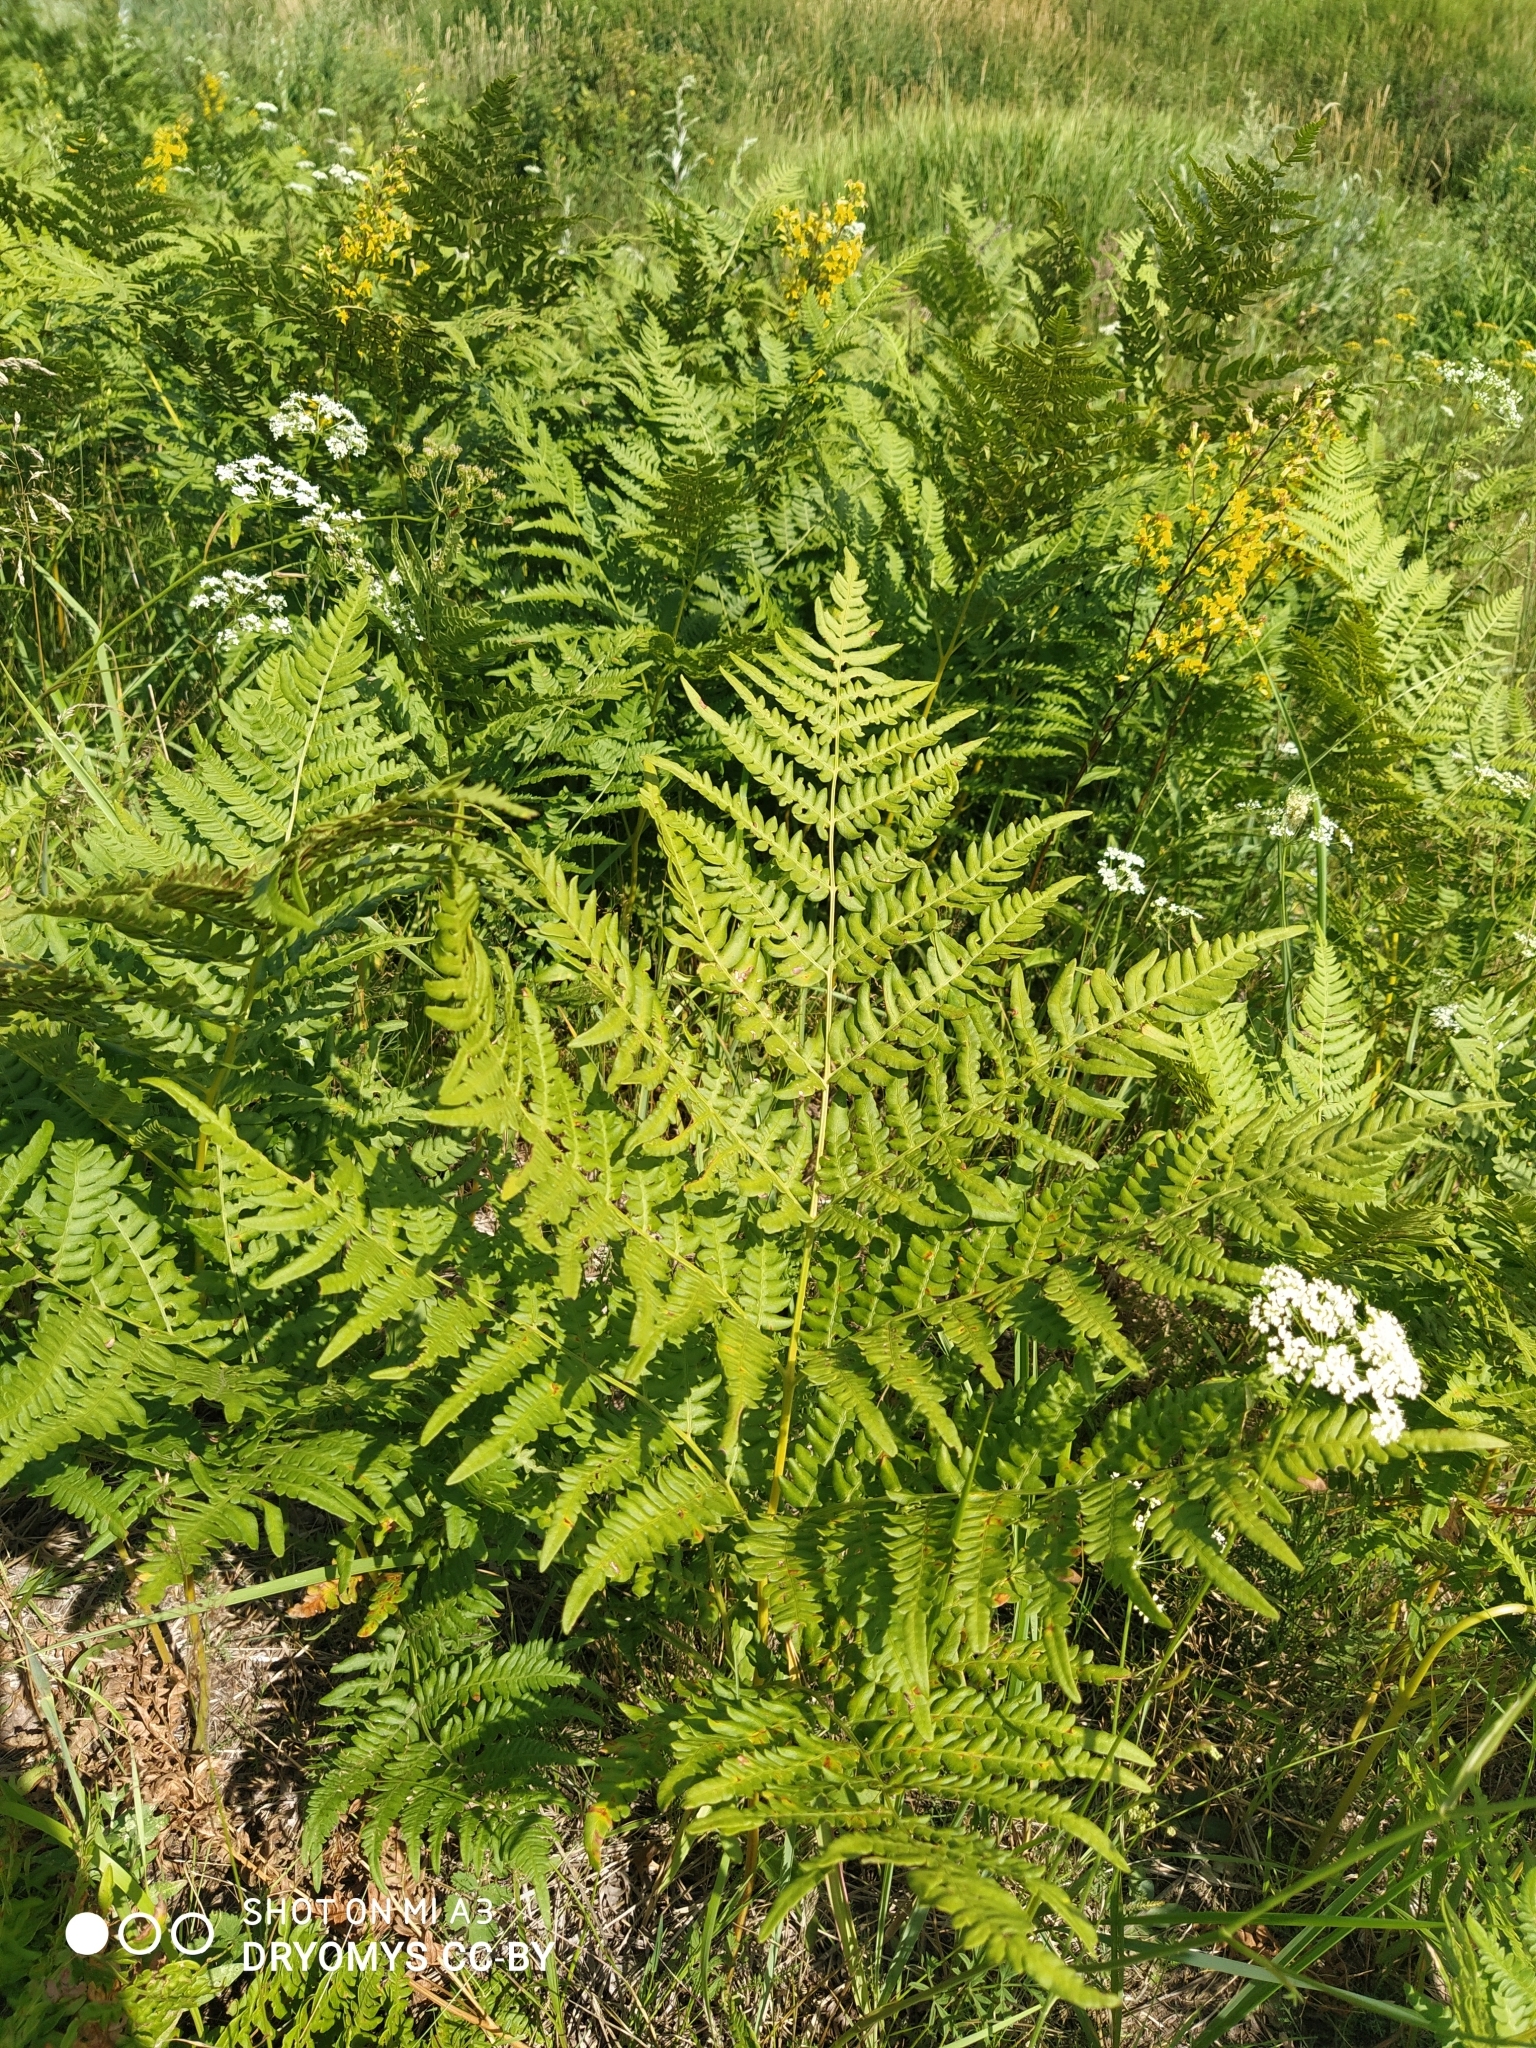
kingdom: Plantae
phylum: Tracheophyta
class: Polypodiopsida
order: Polypodiales
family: Dennstaedtiaceae
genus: Pteridium
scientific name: Pteridium aquilinum
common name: Bracken
